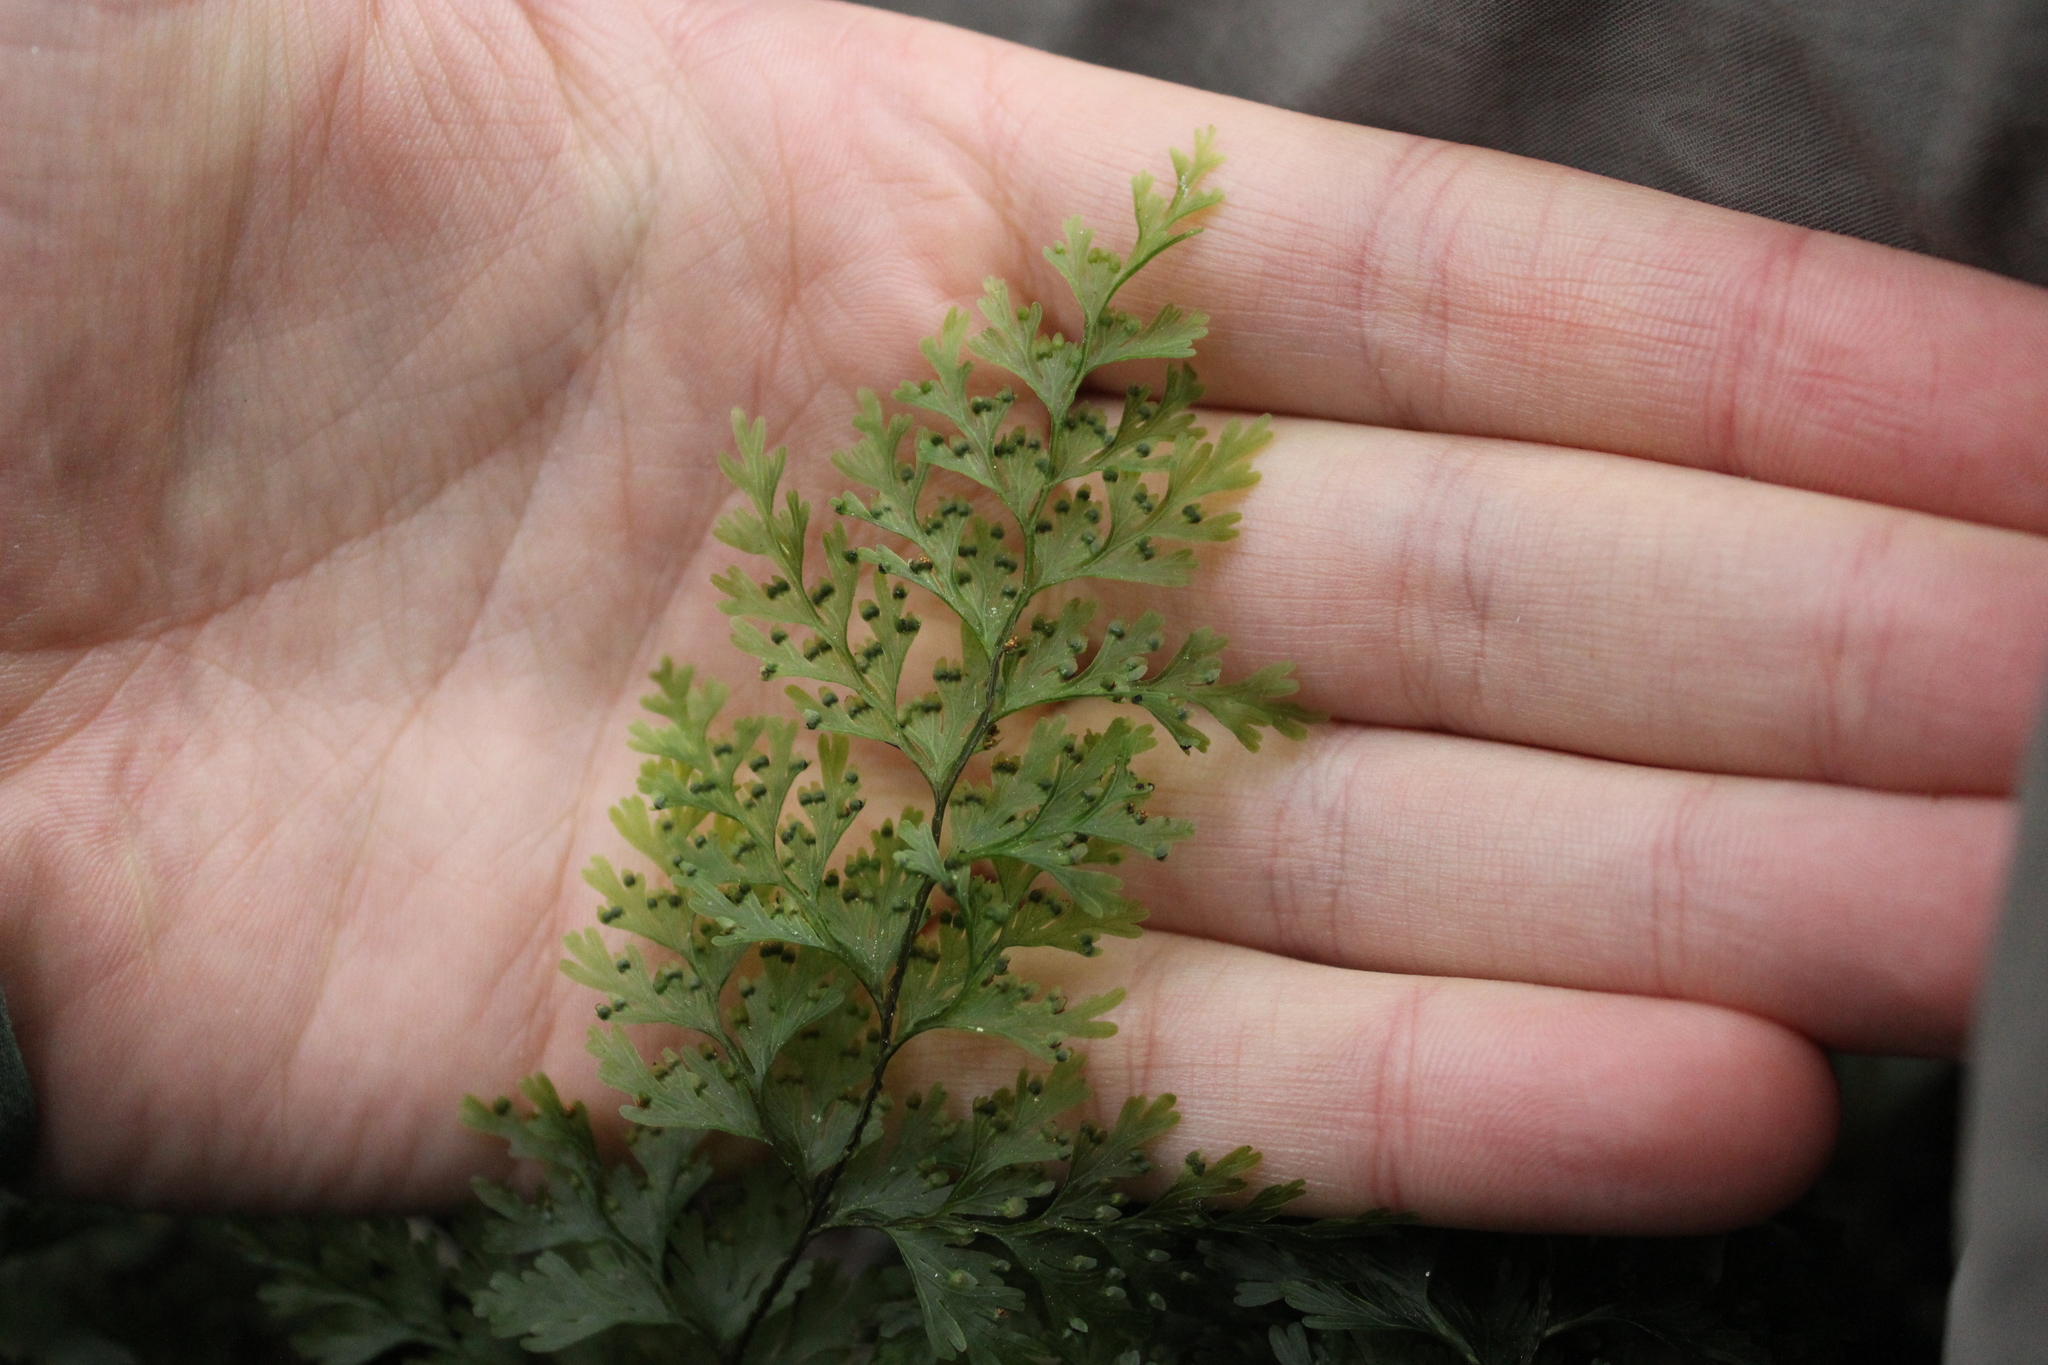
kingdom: Plantae
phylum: Tracheophyta
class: Polypodiopsida
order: Hymenophyllales
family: Hymenophyllaceae
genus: Hymenophyllum
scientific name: Hymenophyllum demissum
